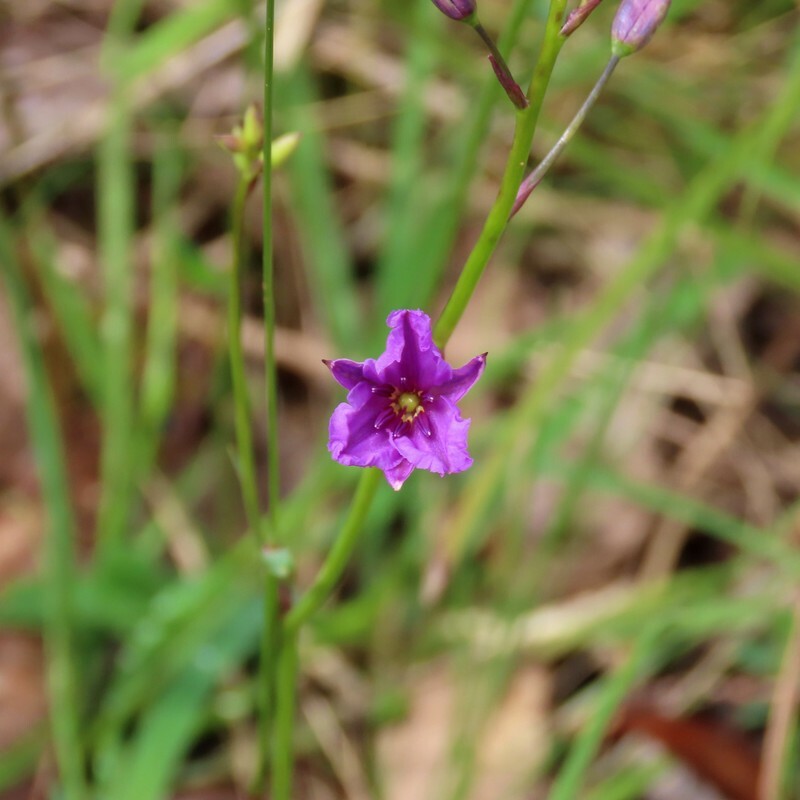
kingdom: Plantae
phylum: Tracheophyta
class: Liliopsida
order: Asparagales
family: Asparagaceae
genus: Arthropodium
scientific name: Arthropodium strictum
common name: Chocolate-lily
